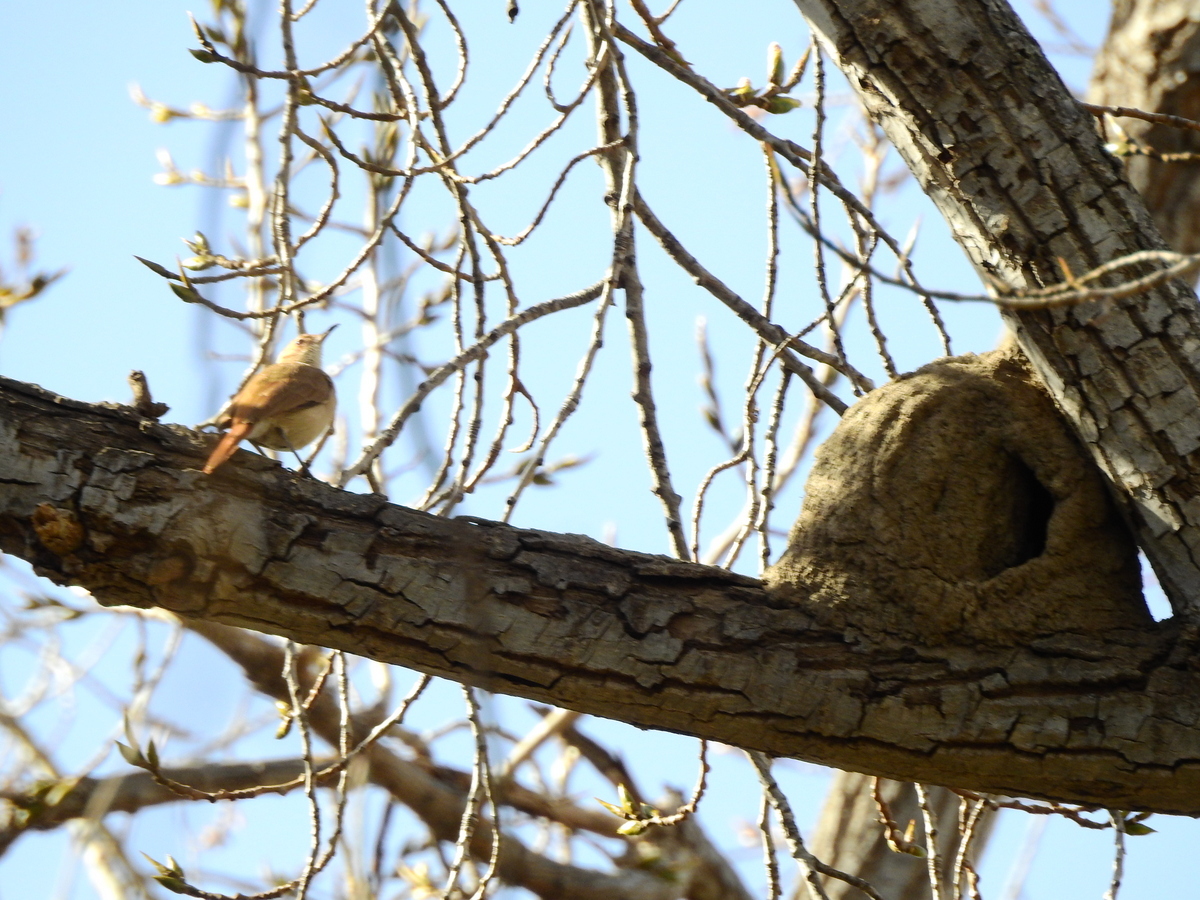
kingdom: Animalia
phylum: Chordata
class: Aves
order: Passeriformes
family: Furnariidae
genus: Furnarius
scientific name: Furnarius rufus
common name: Rufous hornero
